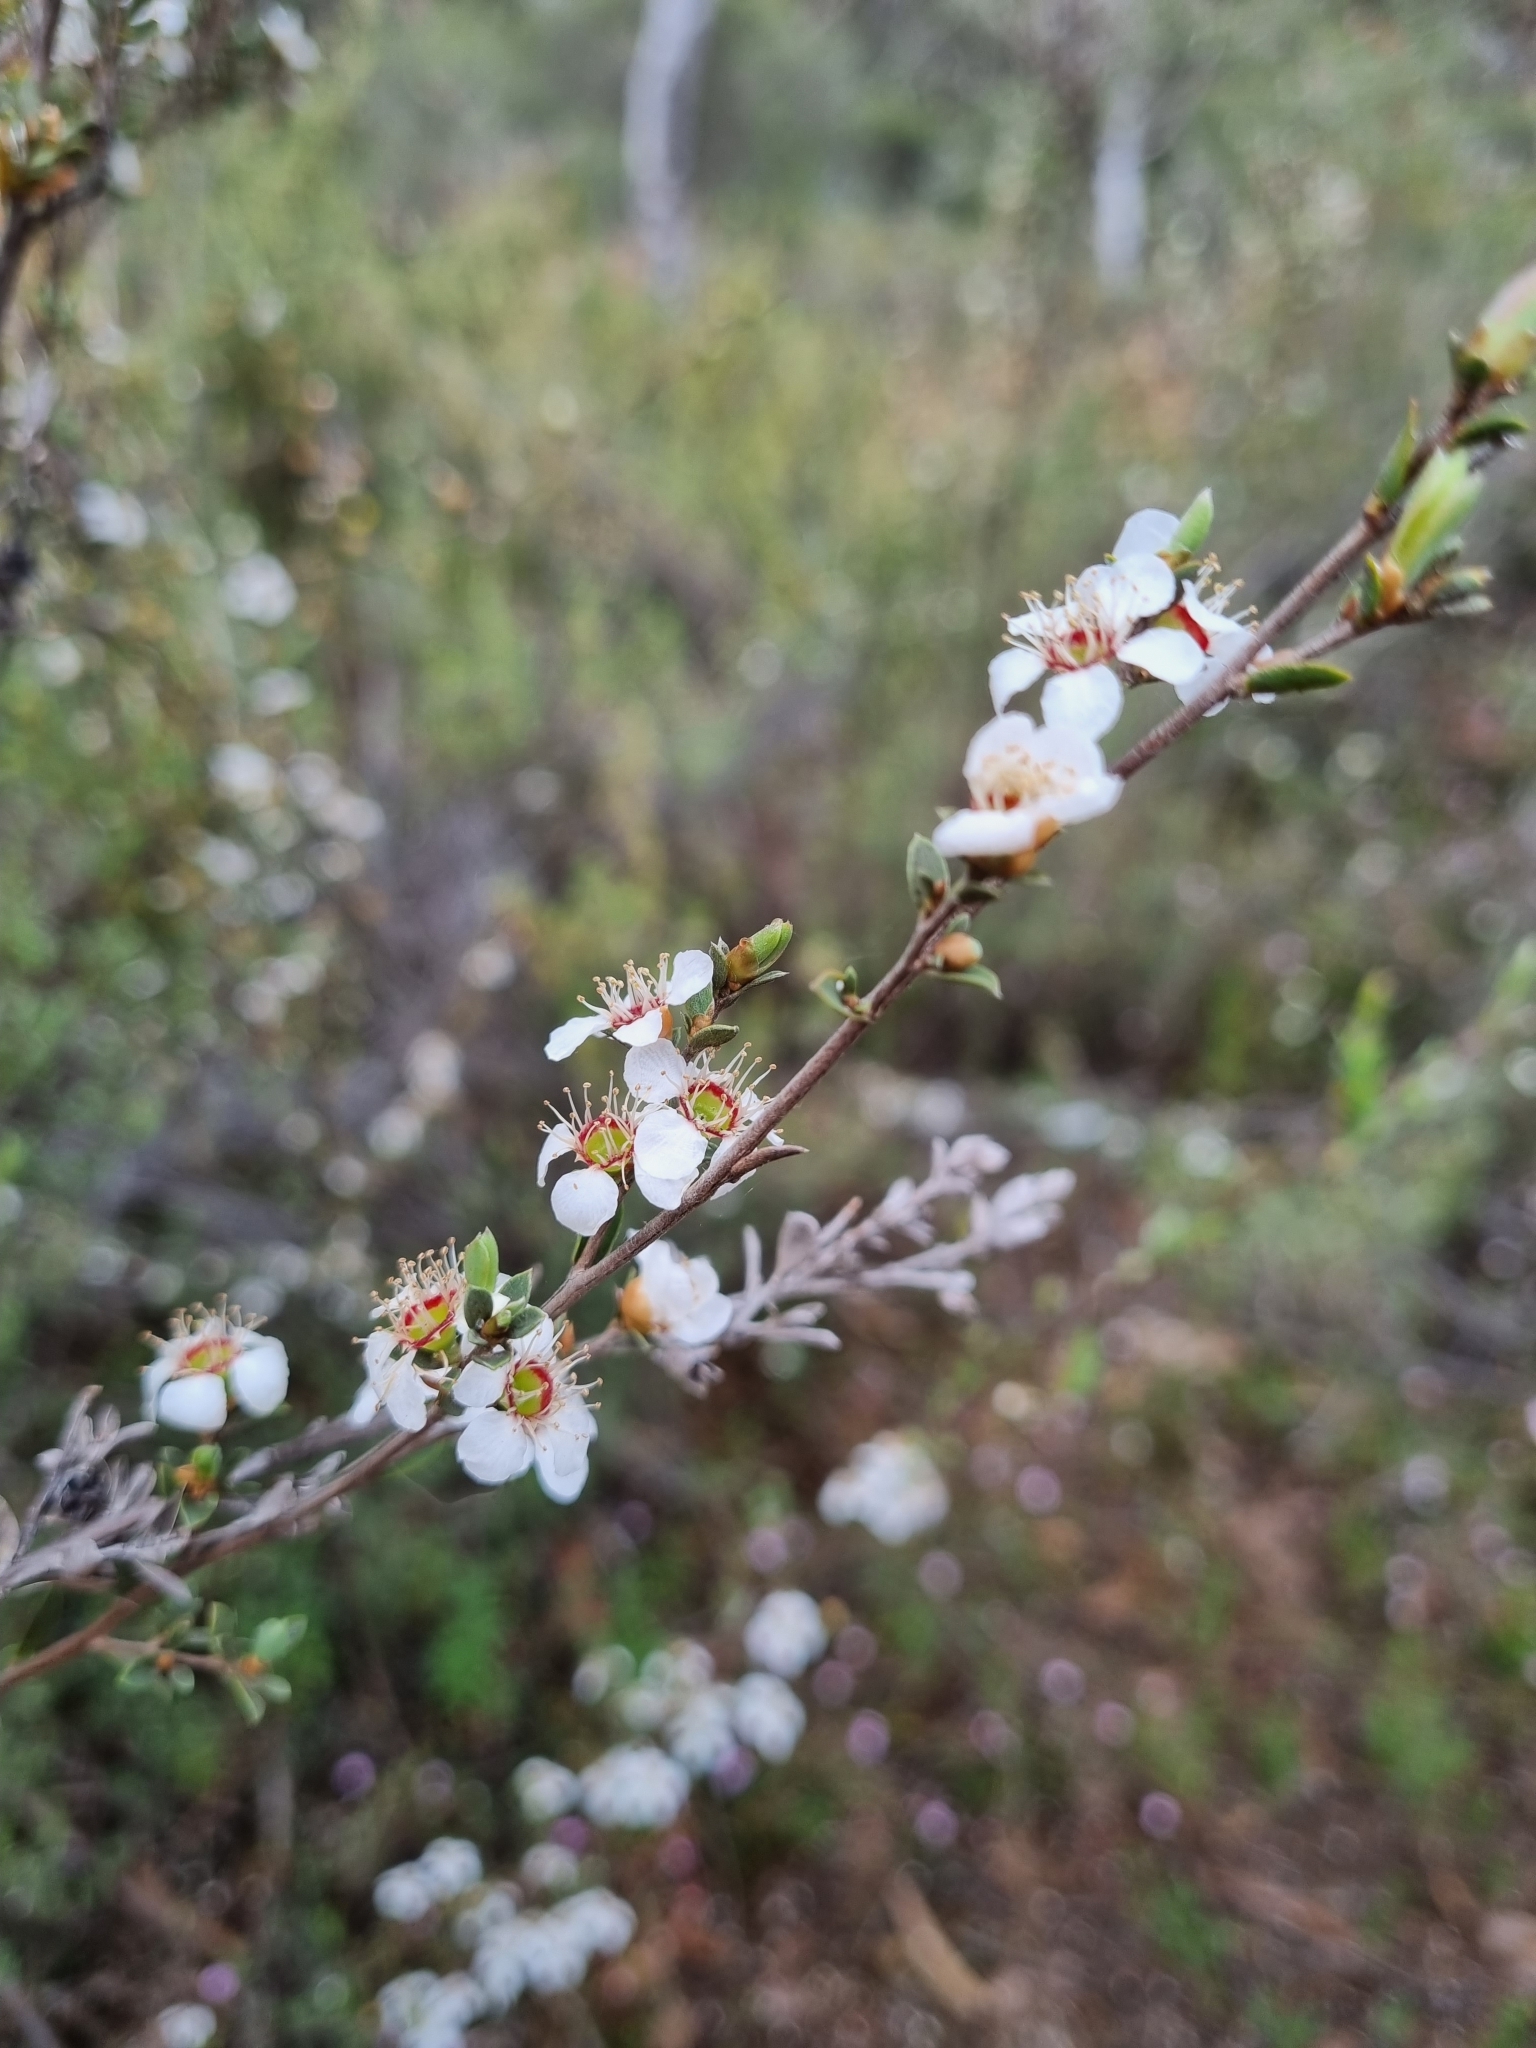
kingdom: Plantae
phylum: Tracheophyta
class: Magnoliopsida
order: Myrtales
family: Myrtaceae
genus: Leptospermum
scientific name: Leptospermum myrsinoides
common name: Heath teatree
